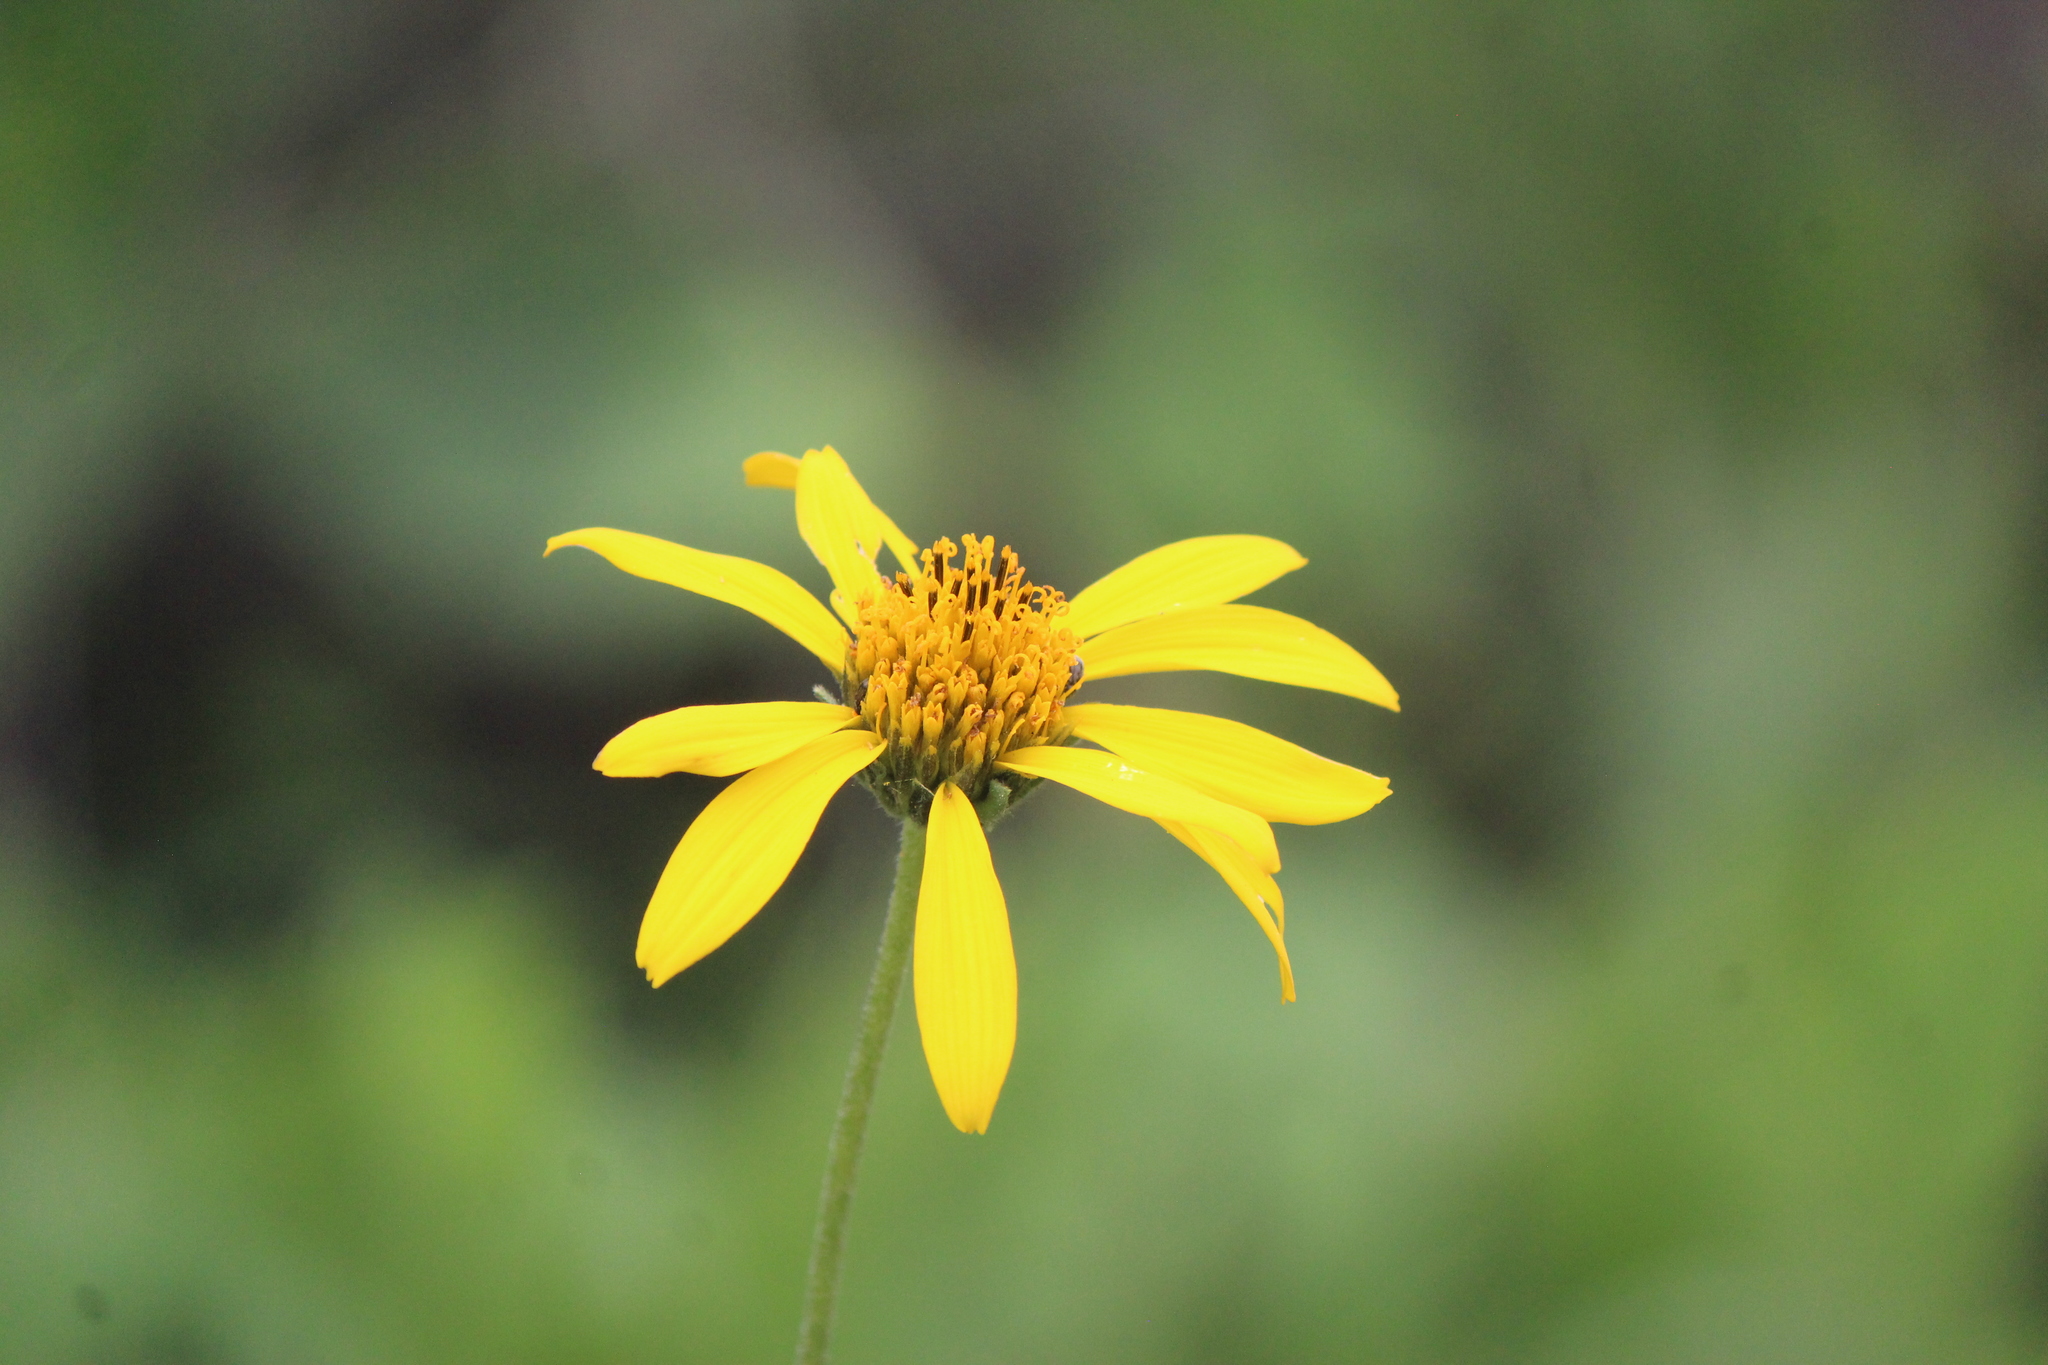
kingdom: Plantae
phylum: Tracheophyta
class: Magnoliopsida
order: Asterales
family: Asteraceae
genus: Verbesina
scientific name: Verbesina longipes
